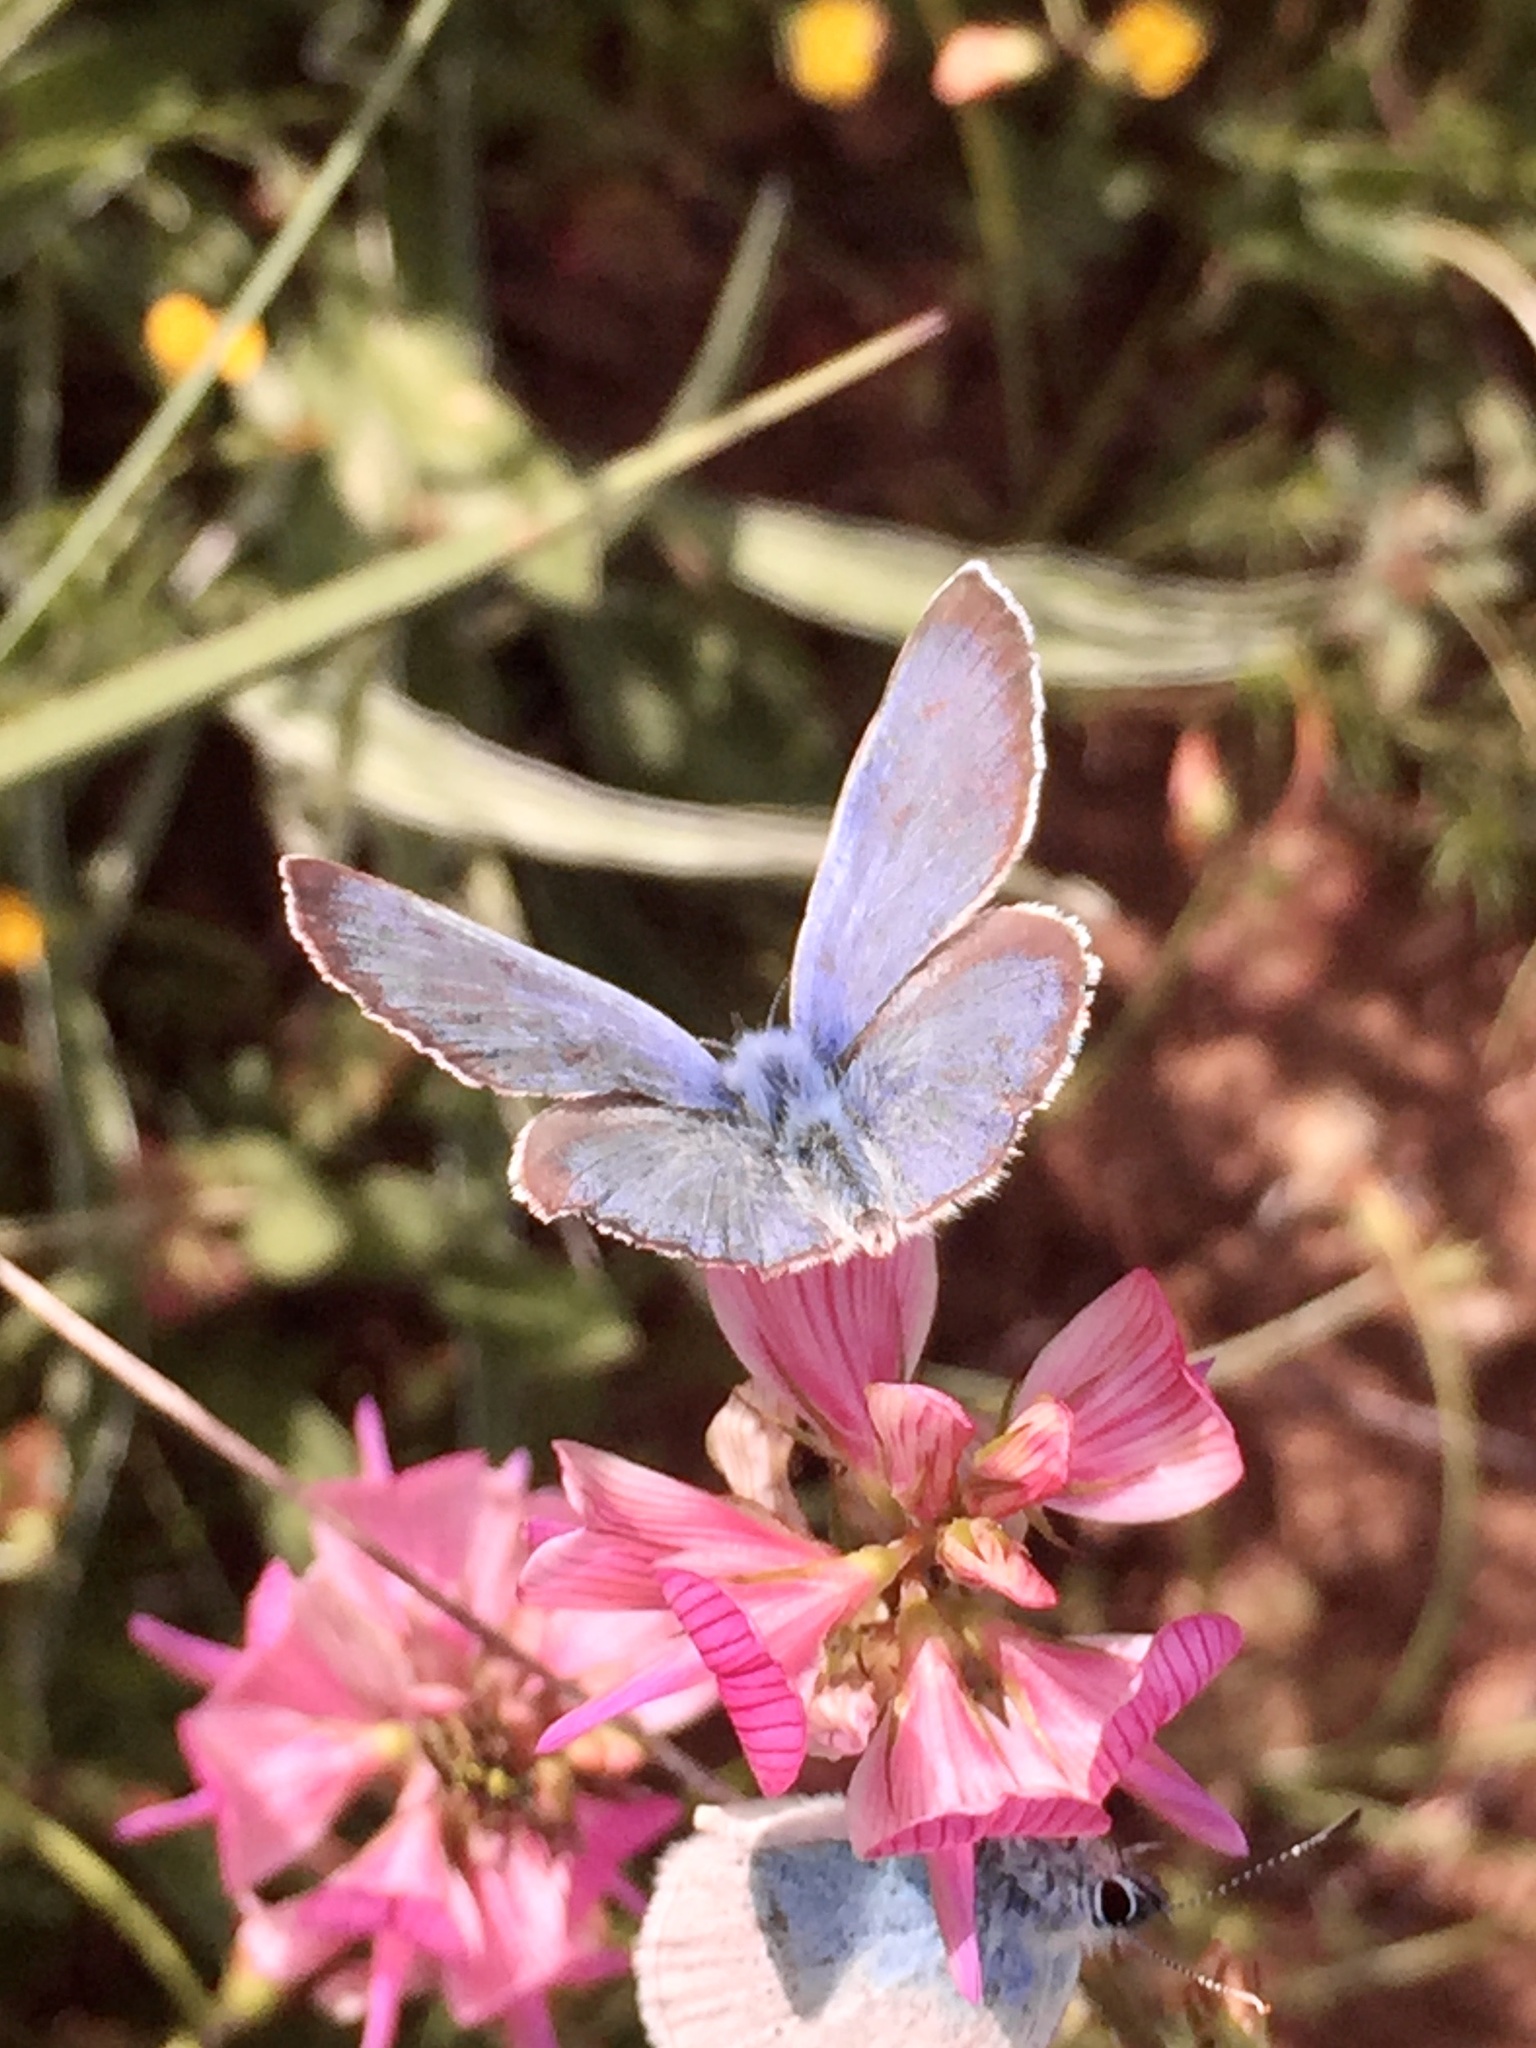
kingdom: Animalia
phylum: Arthropoda
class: Insecta
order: Lepidoptera
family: Lycaenidae
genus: Glaucopsyche
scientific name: Glaucopsyche alexis
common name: Green-underside blue
